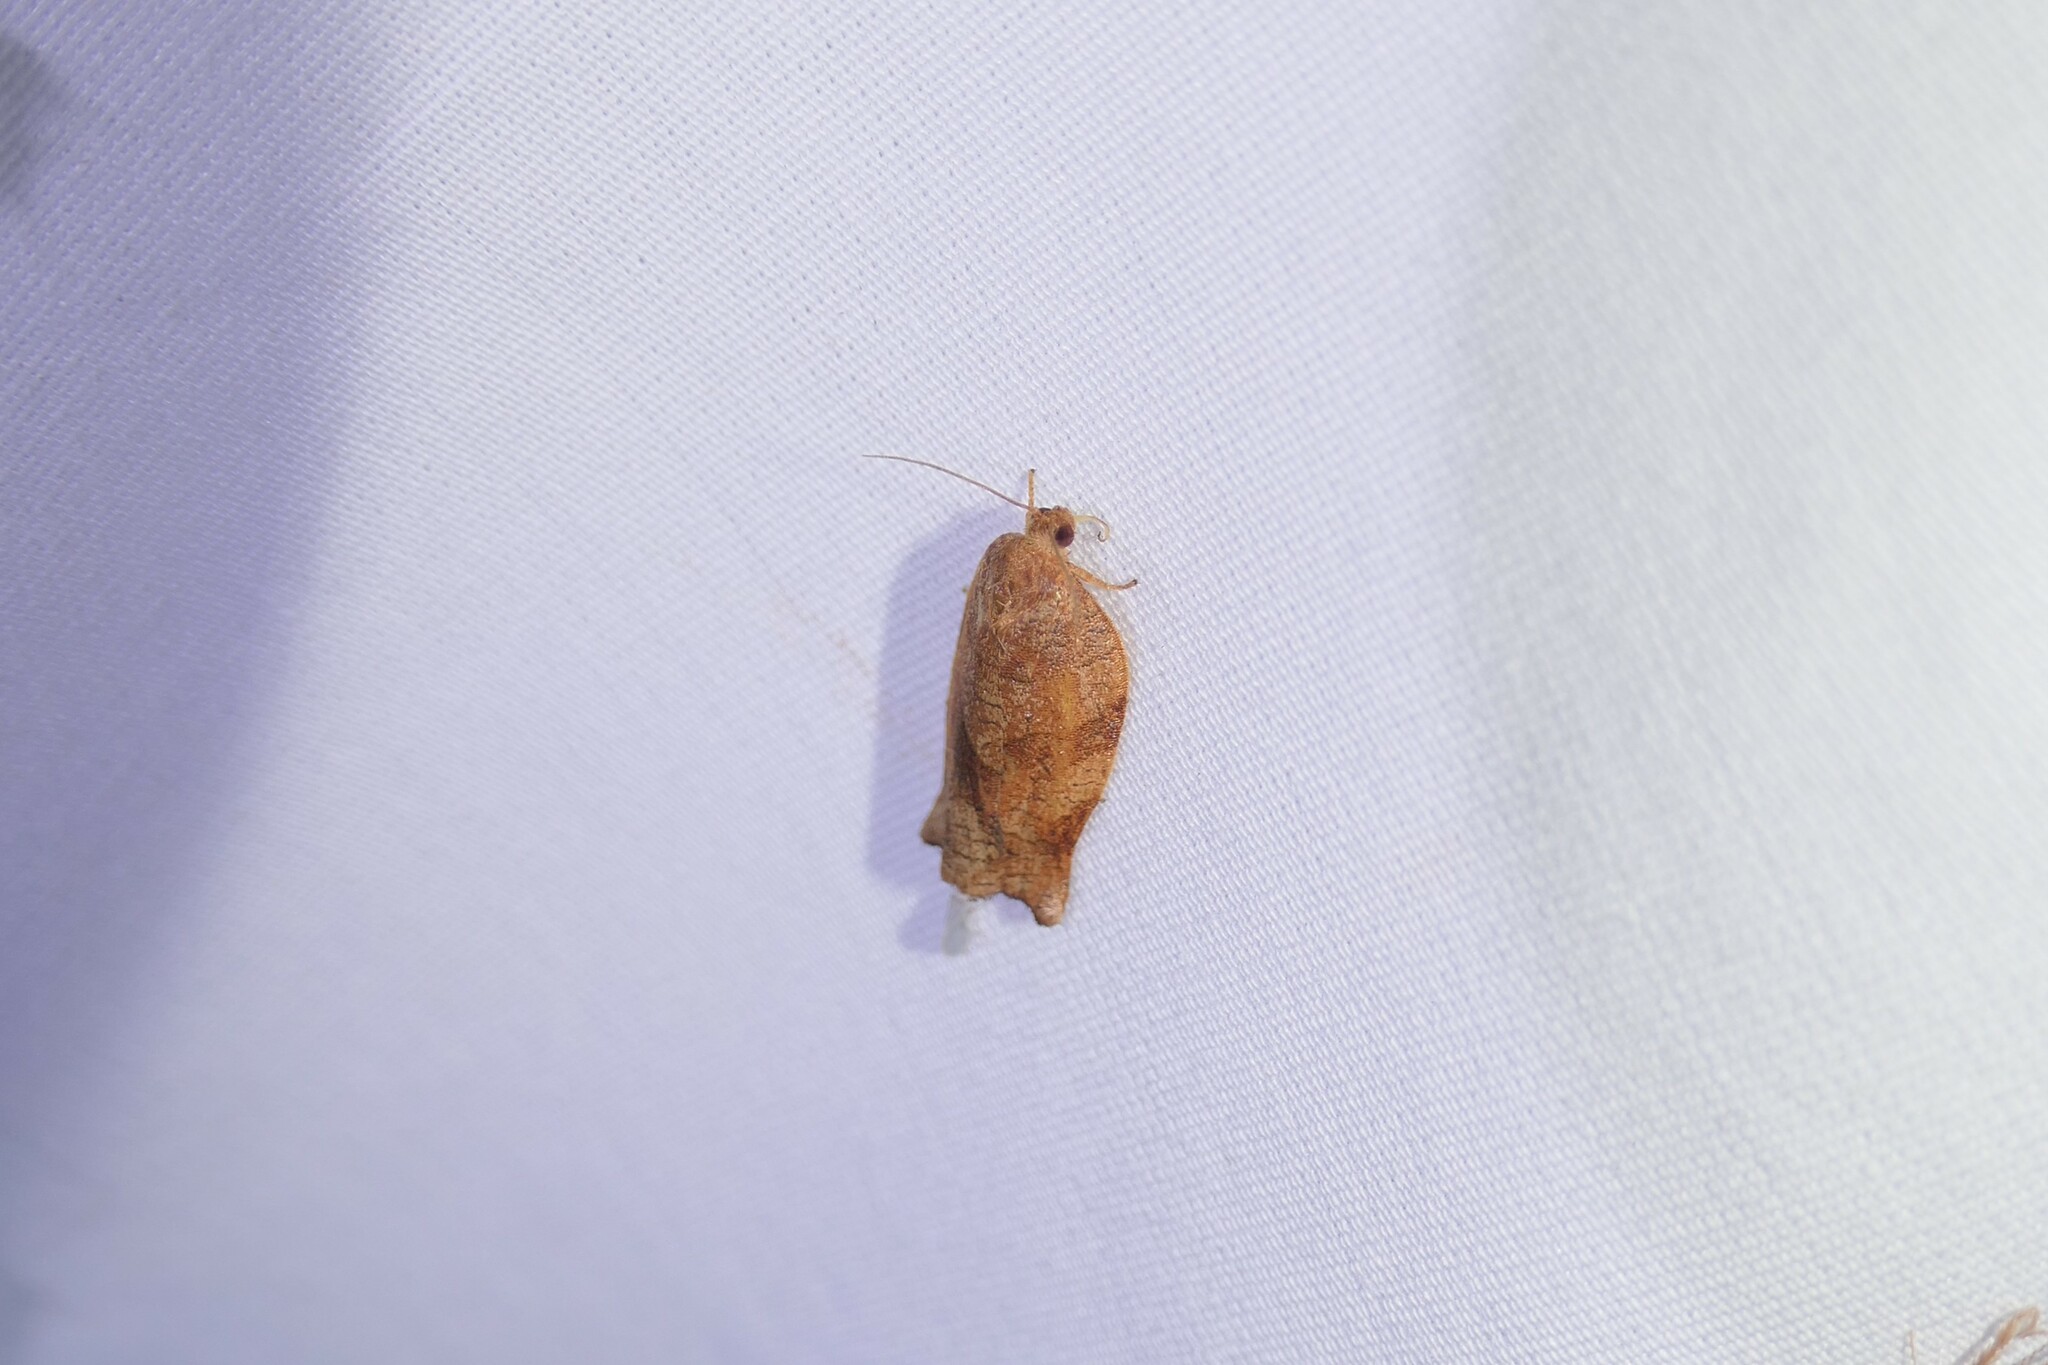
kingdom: Animalia
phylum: Arthropoda
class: Insecta
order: Lepidoptera
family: Tortricidae
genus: Choristoneura
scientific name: Choristoneura rosaceana
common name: Oblique-banded leafroller moth
